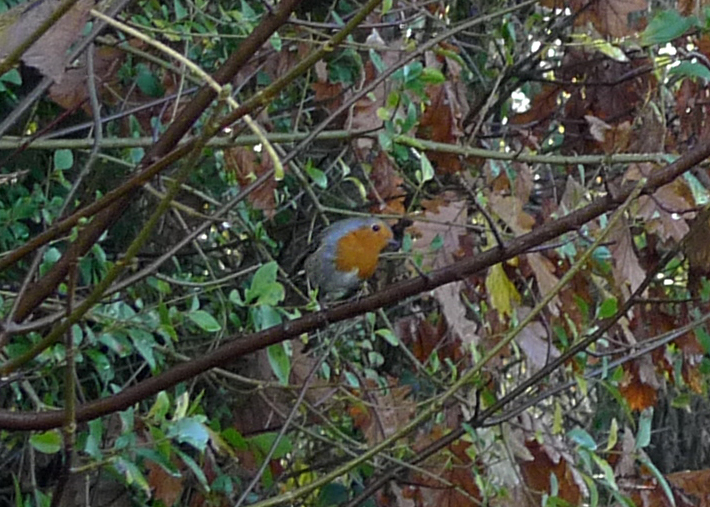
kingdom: Animalia
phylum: Chordata
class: Aves
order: Passeriformes
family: Muscicapidae
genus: Erithacus
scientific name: Erithacus rubecula
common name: European robin
